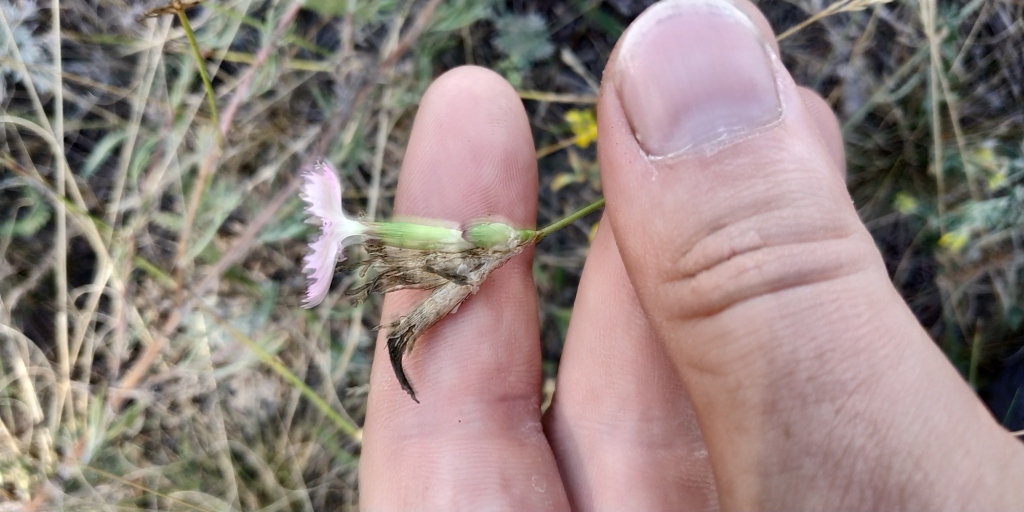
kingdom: Plantae
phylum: Tracheophyta
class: Magnoliopsida
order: Caryophyllales
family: Caryophyllaceae
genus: Dianthus
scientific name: Dianthus chinensis
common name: Rainbow pink
